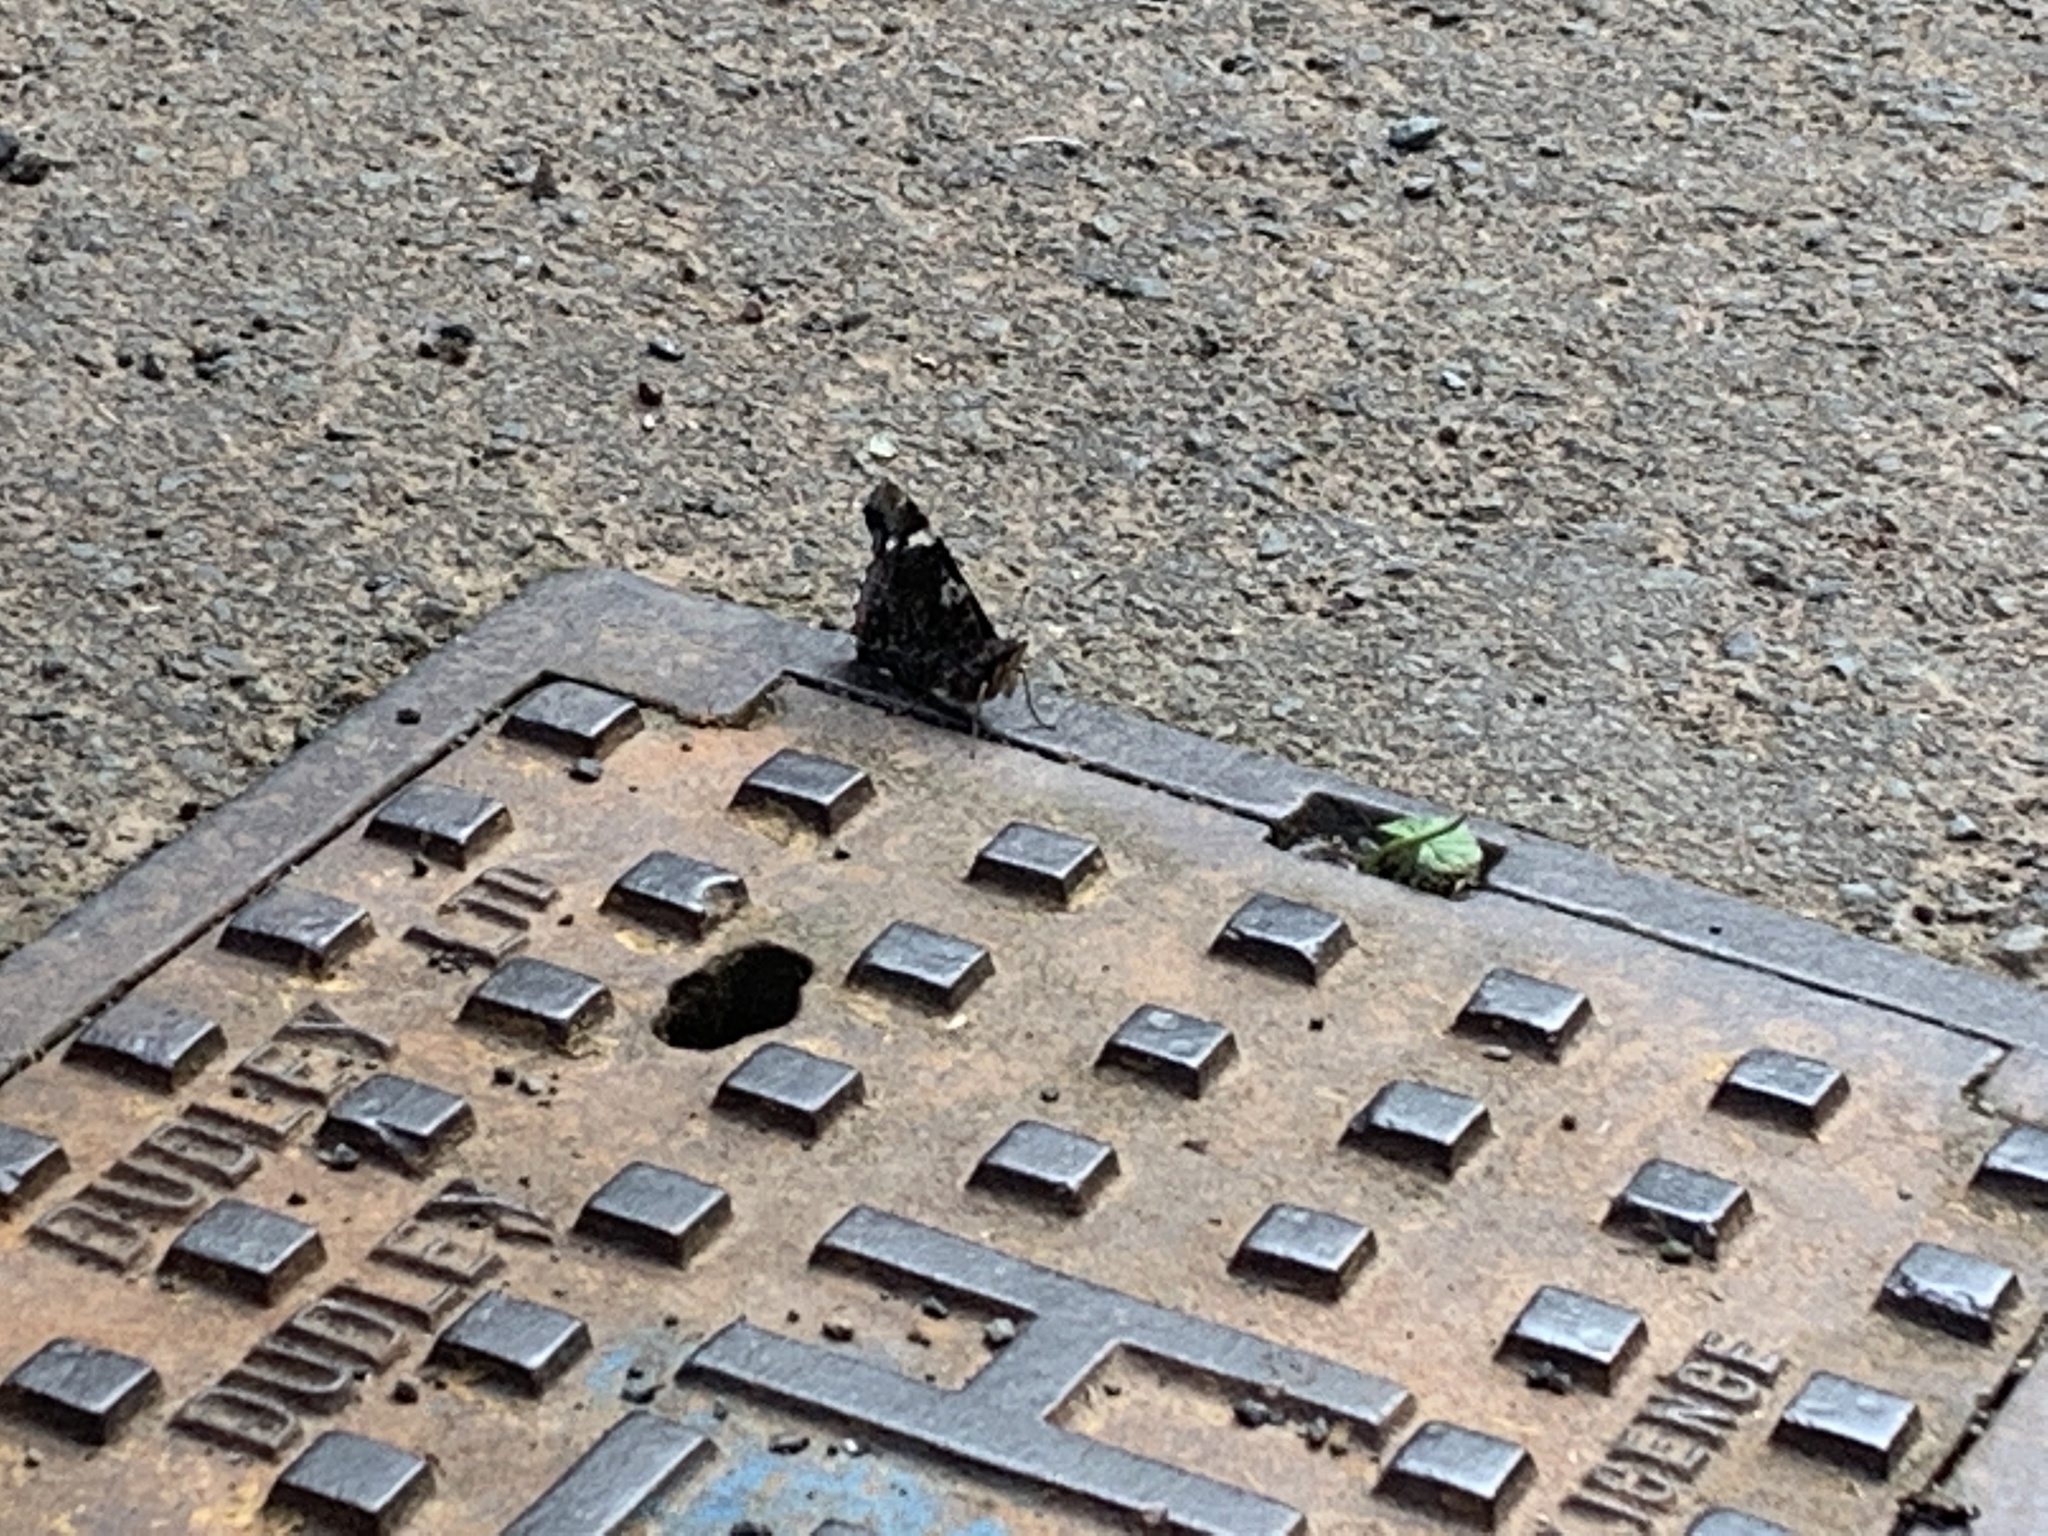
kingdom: Animalia
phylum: Arthropoda
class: Insecta
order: Lepidoptera
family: Nymphalidae
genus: Vanessa
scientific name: Vanessa atalanta
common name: Red admiral
